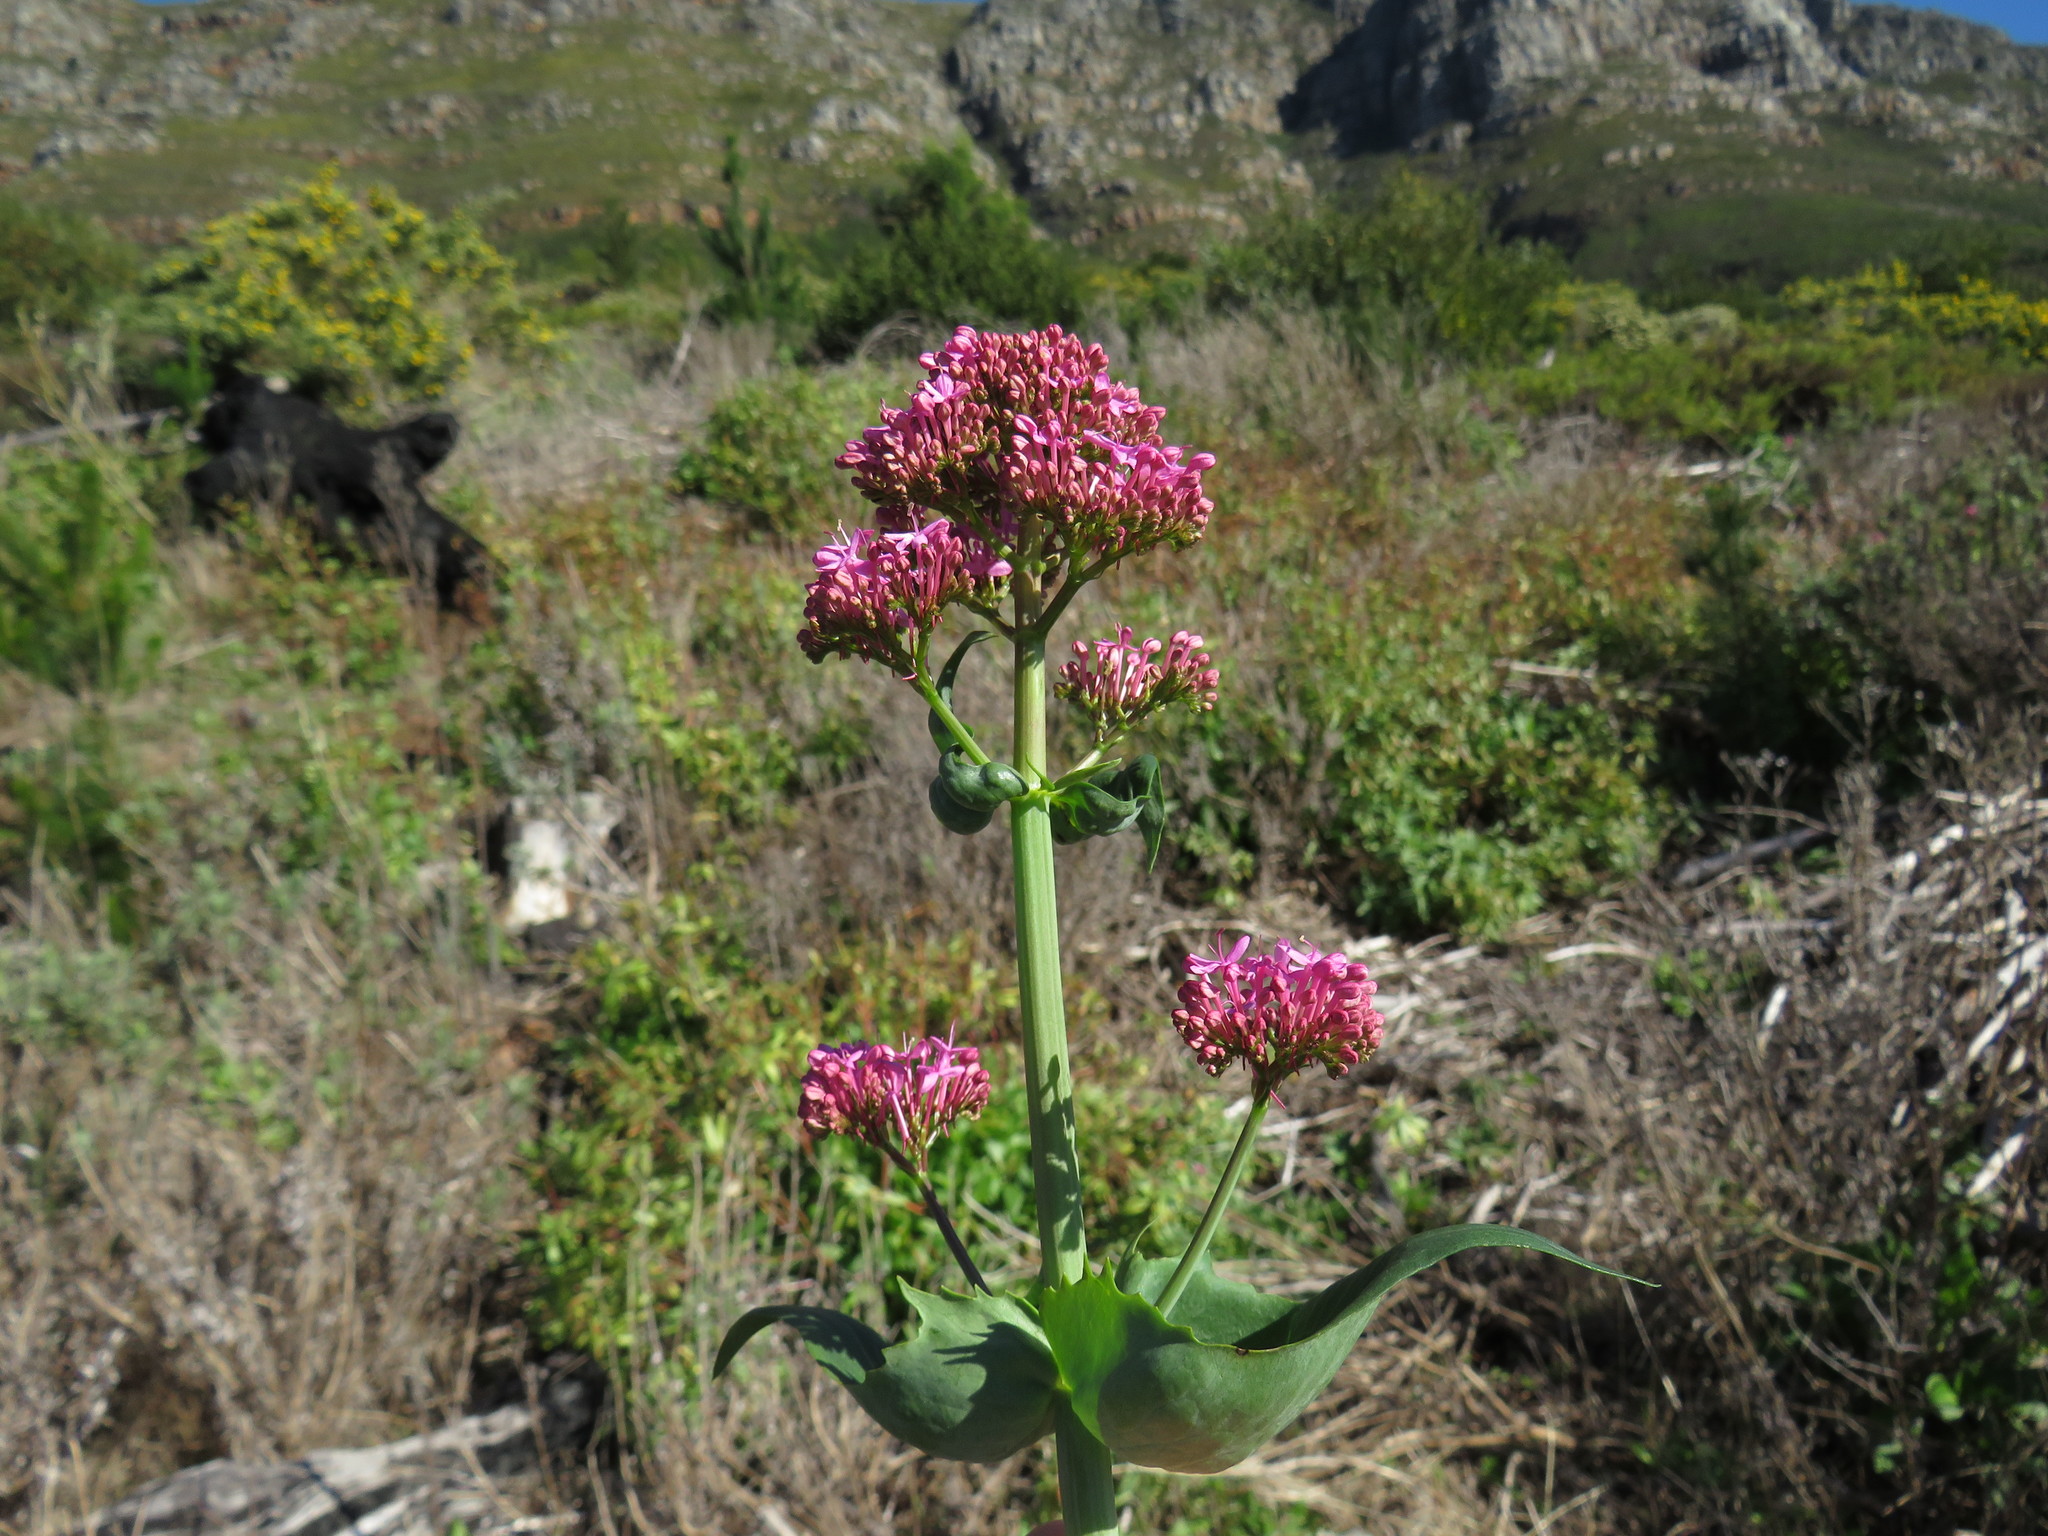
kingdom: Plantae
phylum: Tracheophyta
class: Magnoliopsida
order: Dipsacales
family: Caprifoliaceae
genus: Centranthus
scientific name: Centranthus ruber
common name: Red valerian
